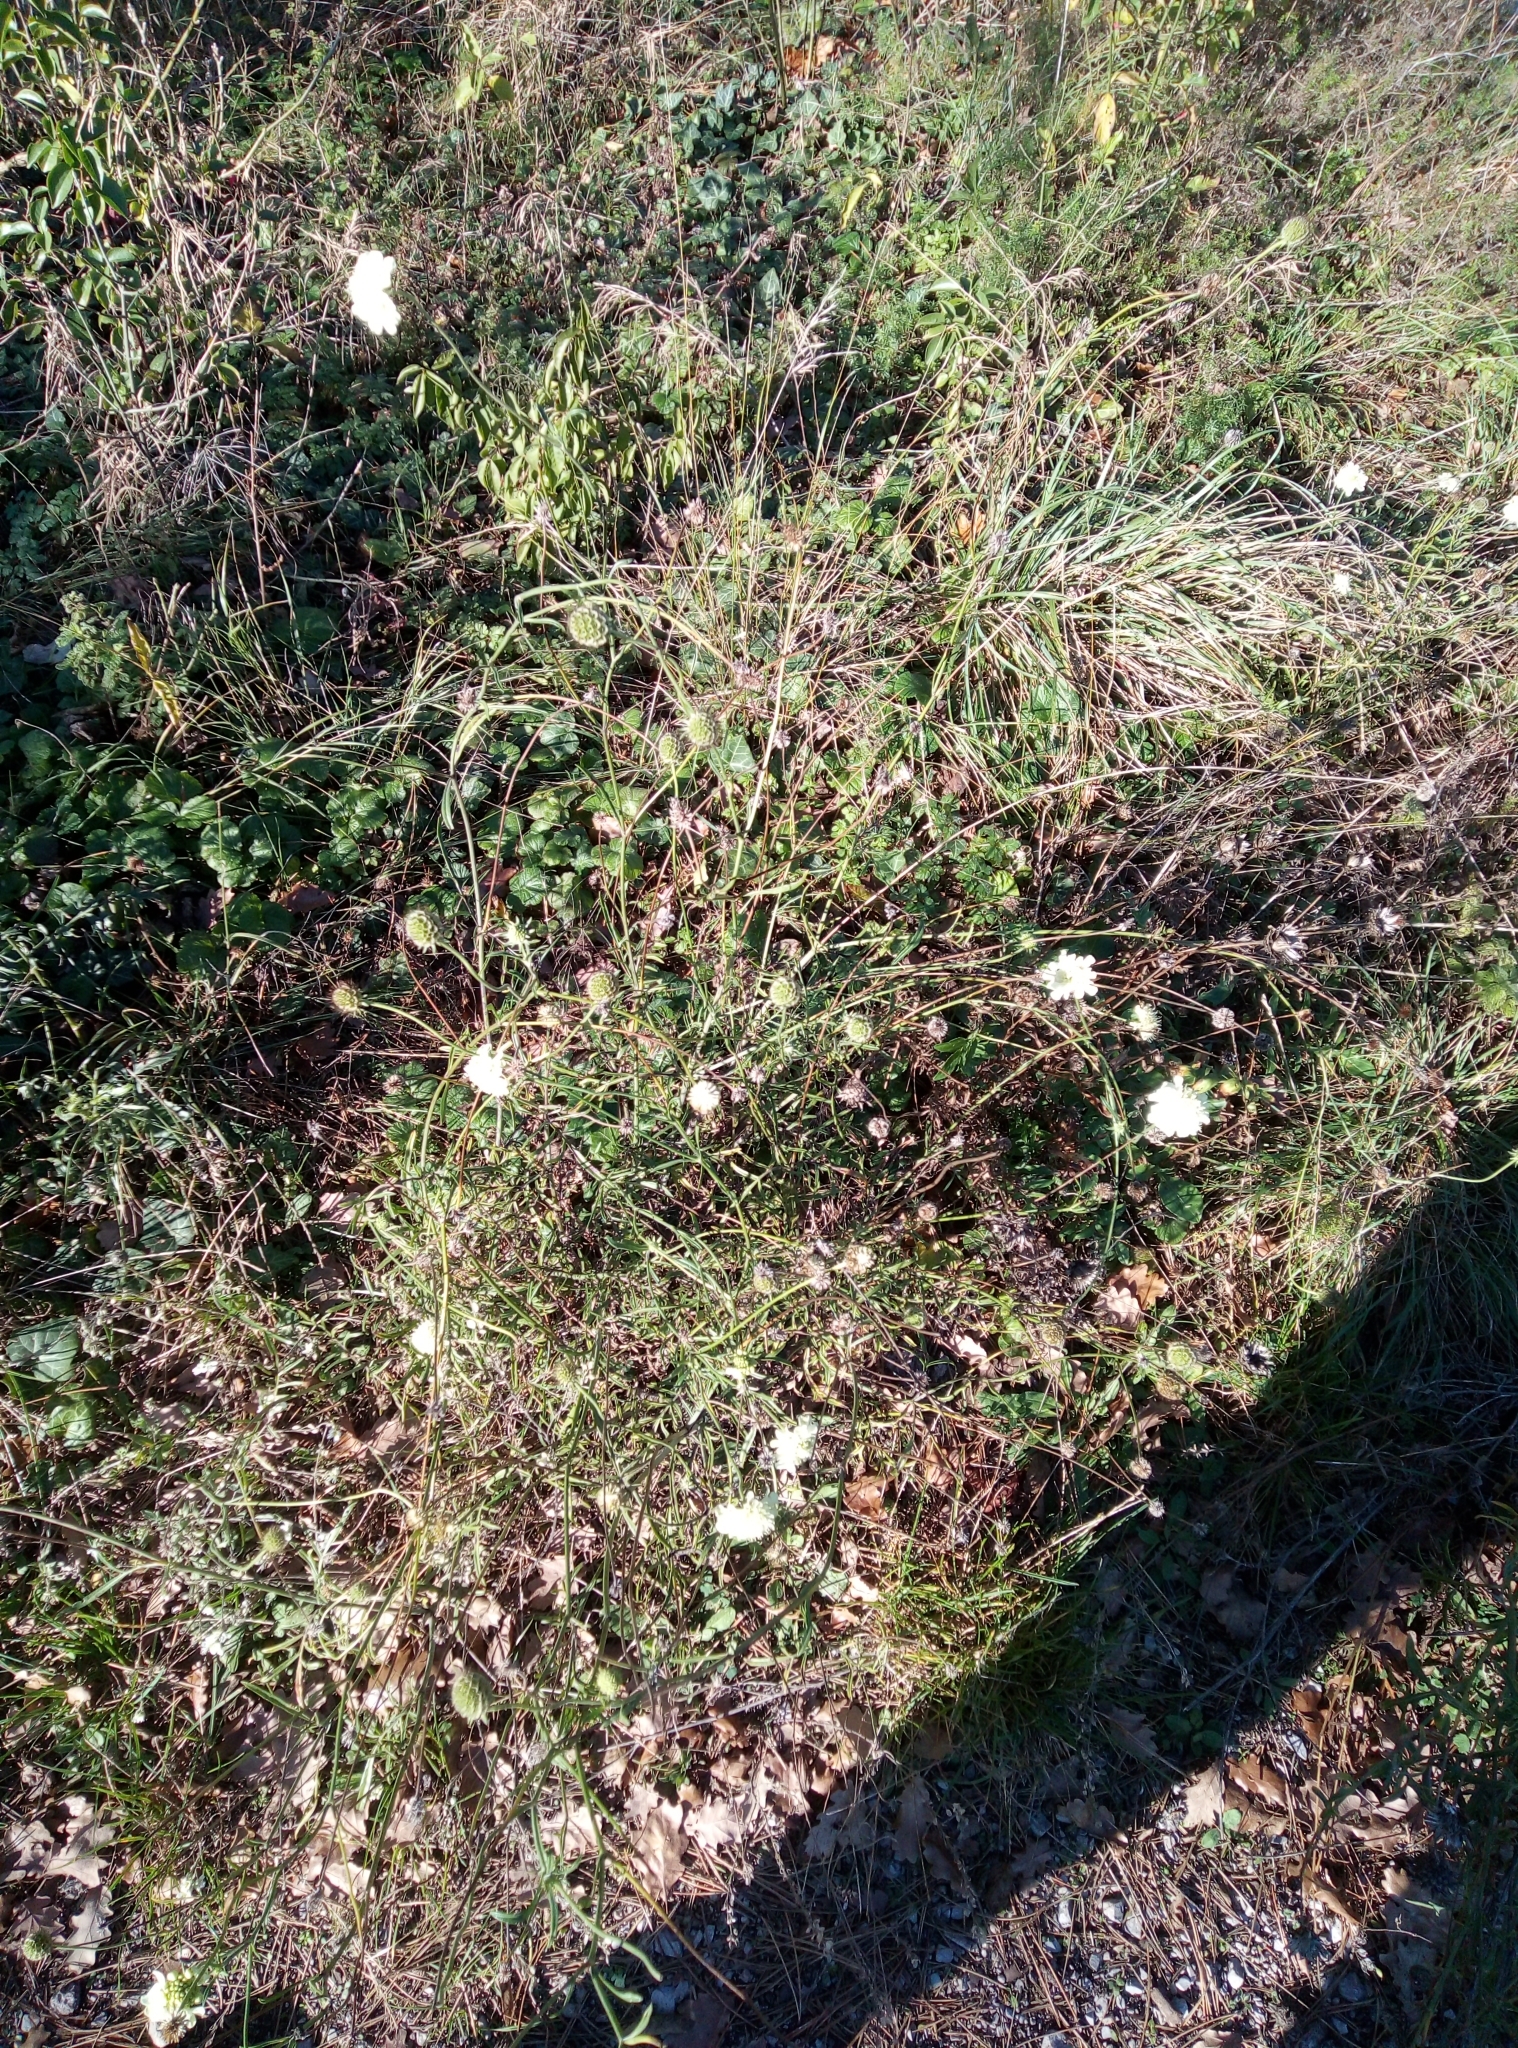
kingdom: Plantae
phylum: Tracheophyta
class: Magnoliopsida
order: Dipsacales
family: Caprifoliaceae
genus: Scabiosa
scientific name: Scabiosa ochroleuca
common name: Cream pincushions
